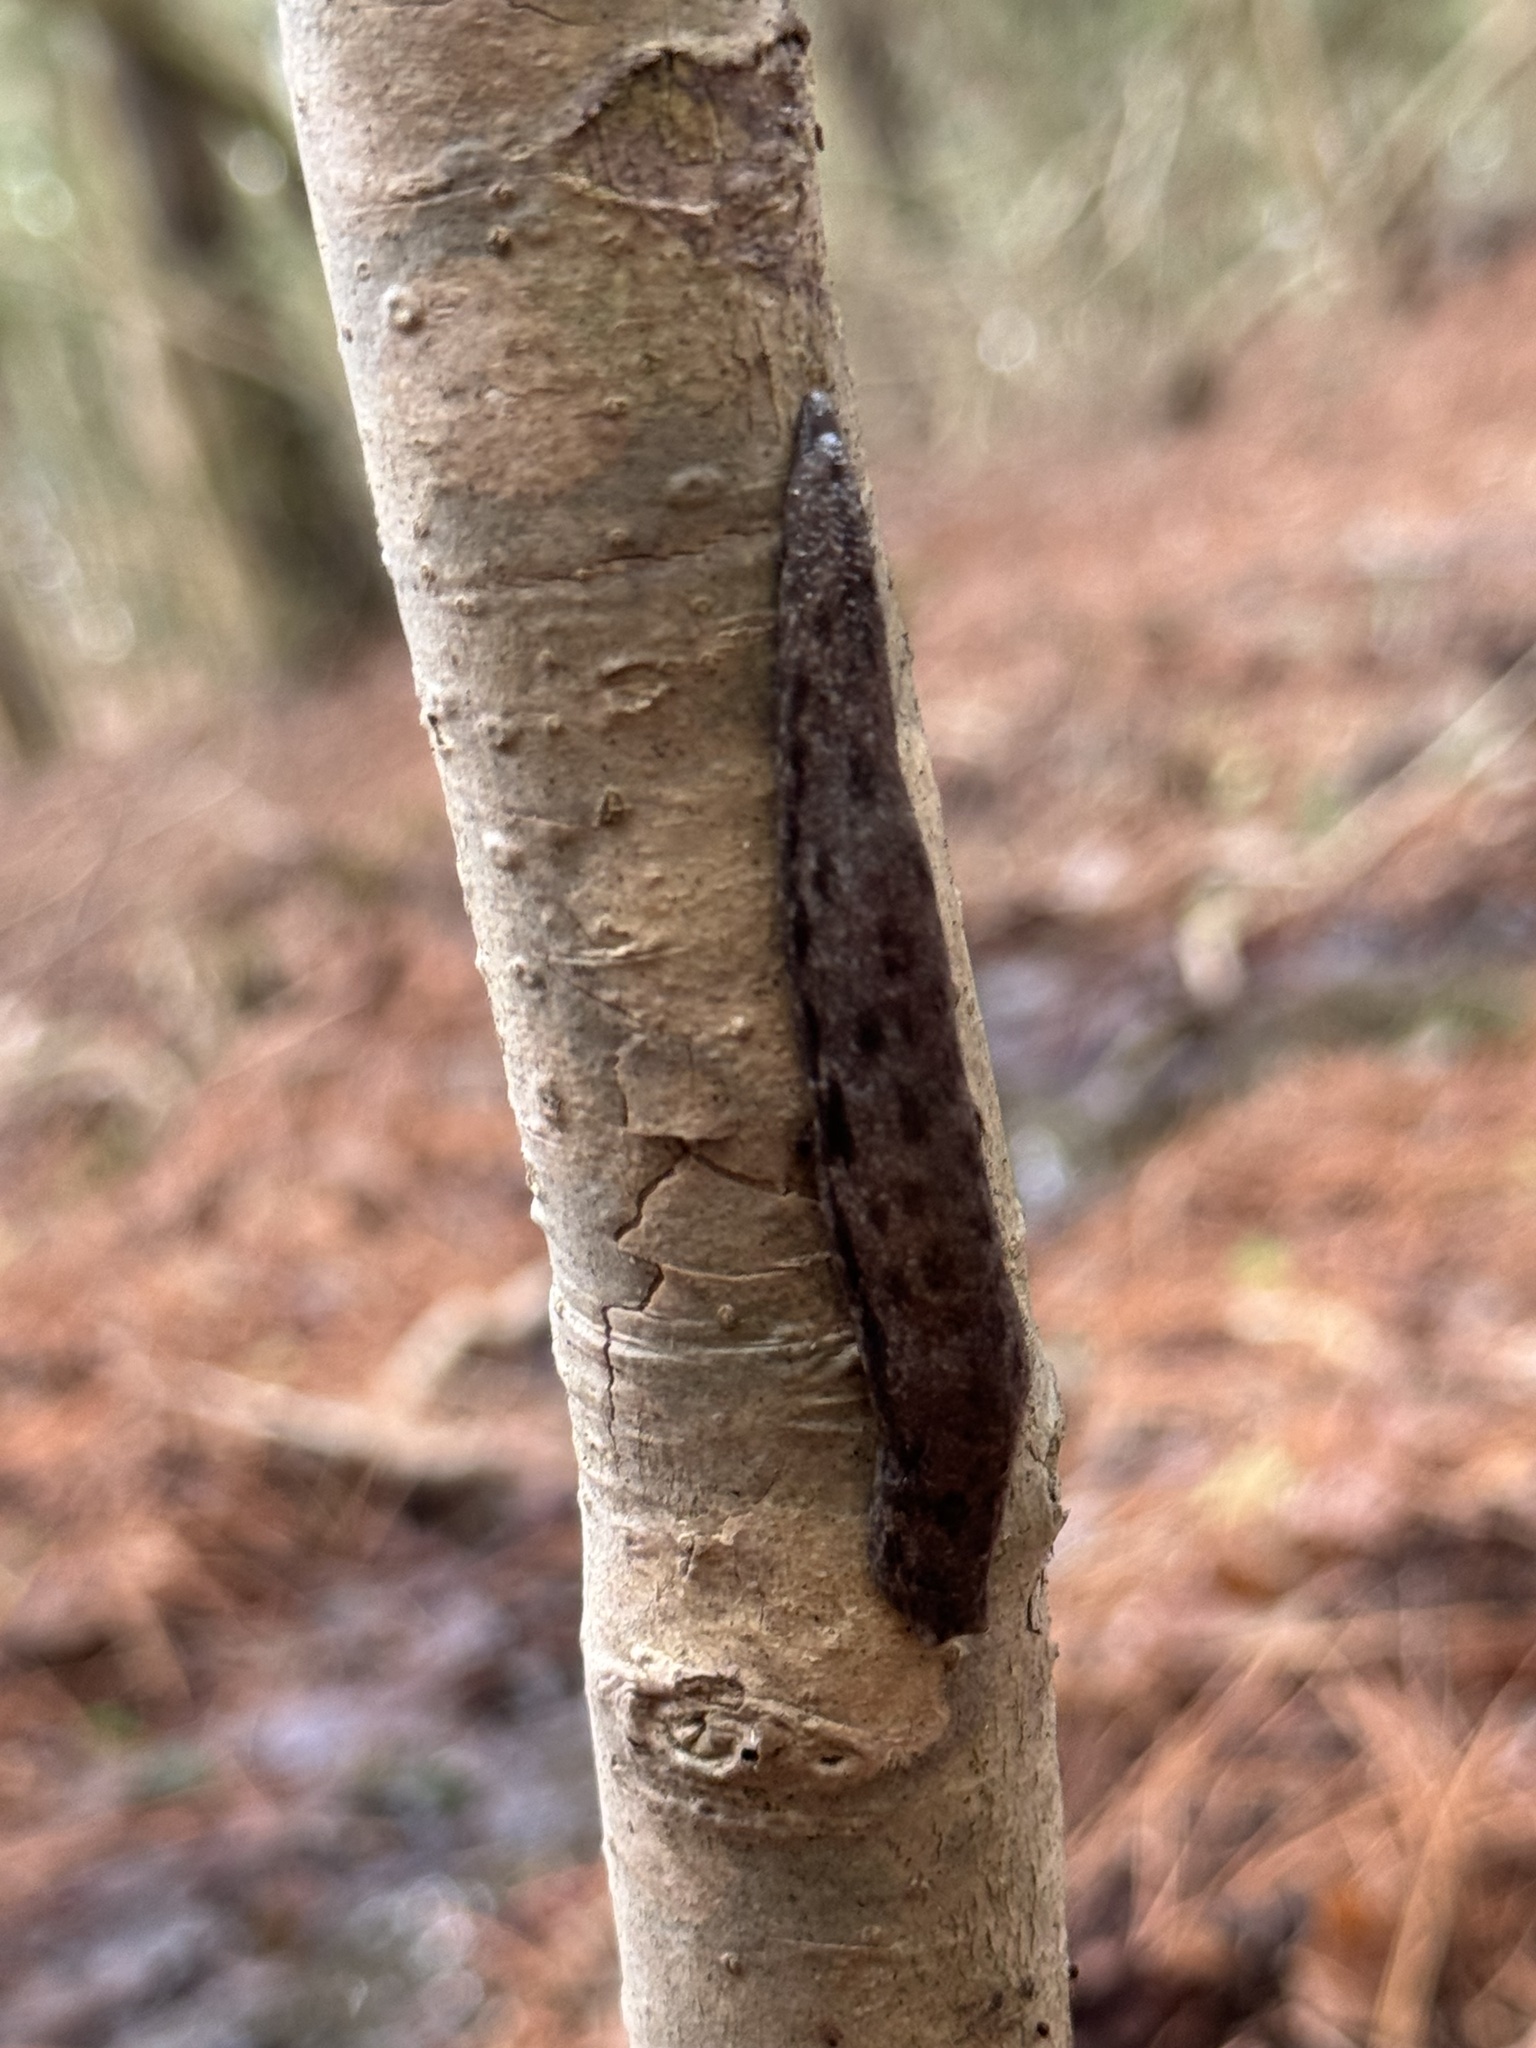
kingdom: Animalia
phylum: Mollusca
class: Gastropoda
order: Stylommatophora
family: Philomycidae
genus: Megapallifera
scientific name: Megapallifera mutabilis
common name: Changeable mantleslug
